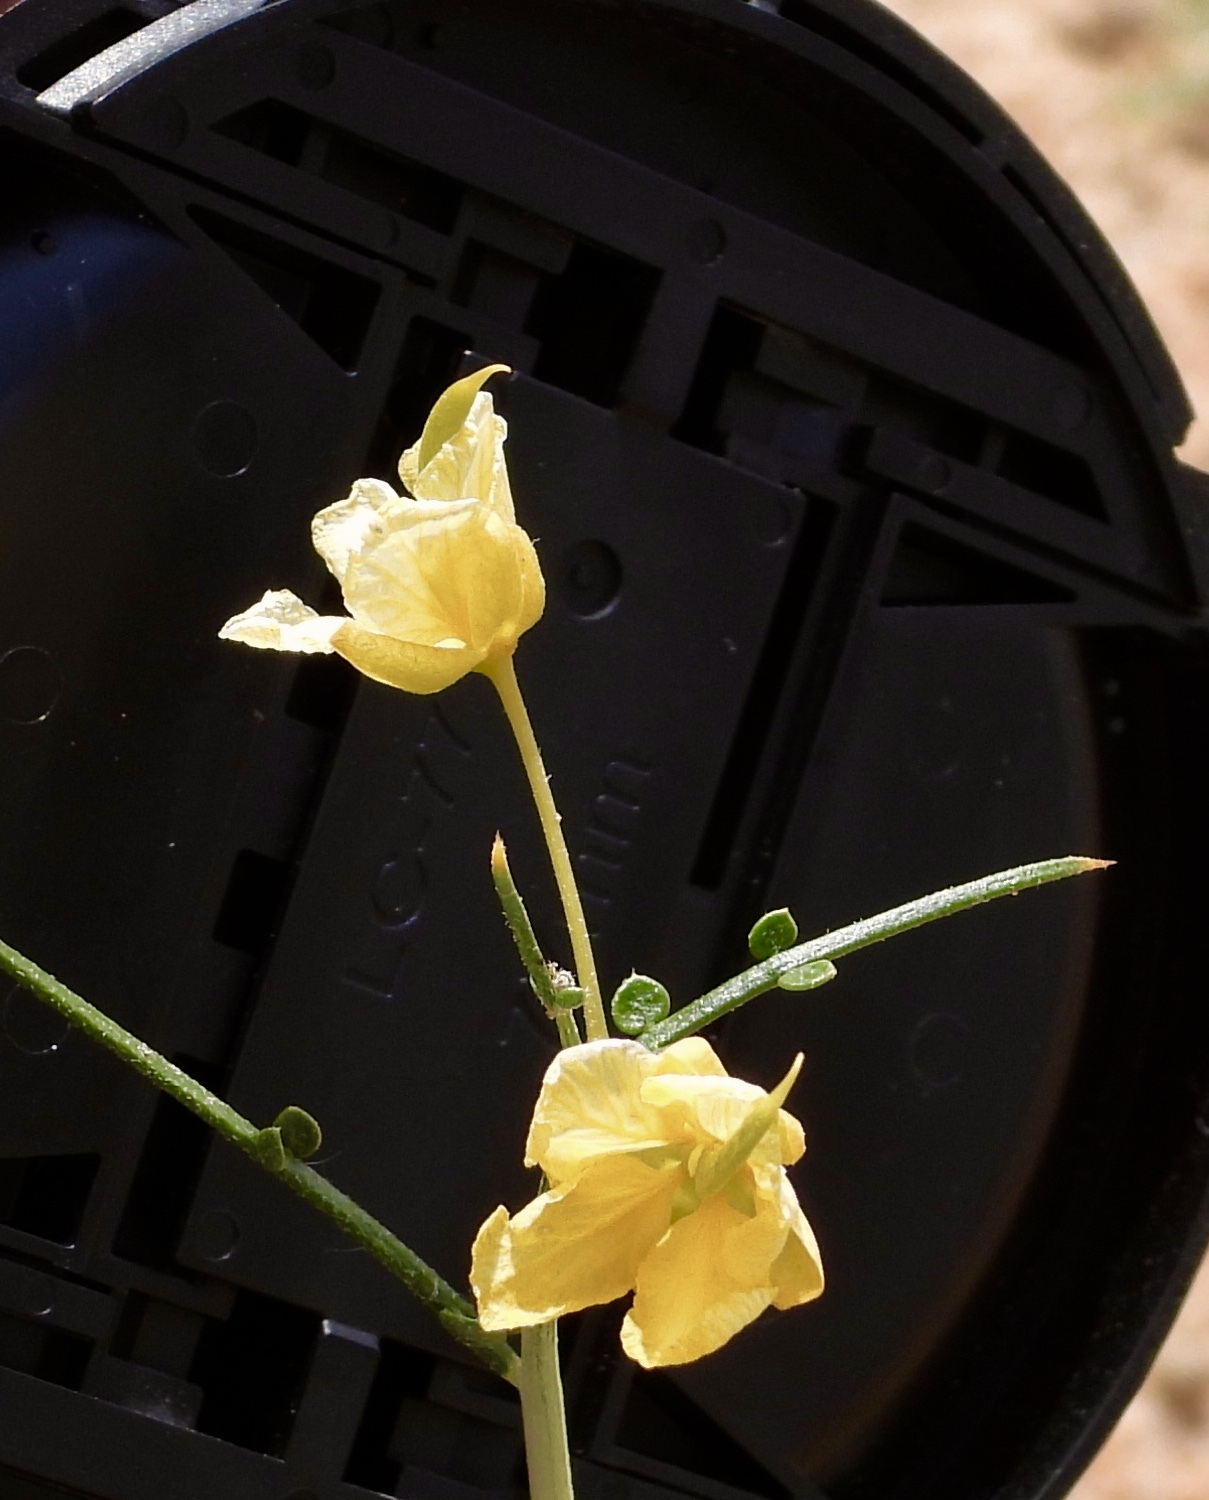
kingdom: Plantae
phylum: Tracheophyta
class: Magnoliopsida
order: Fabales
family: Fabaceae
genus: Senna
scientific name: Senna armata
